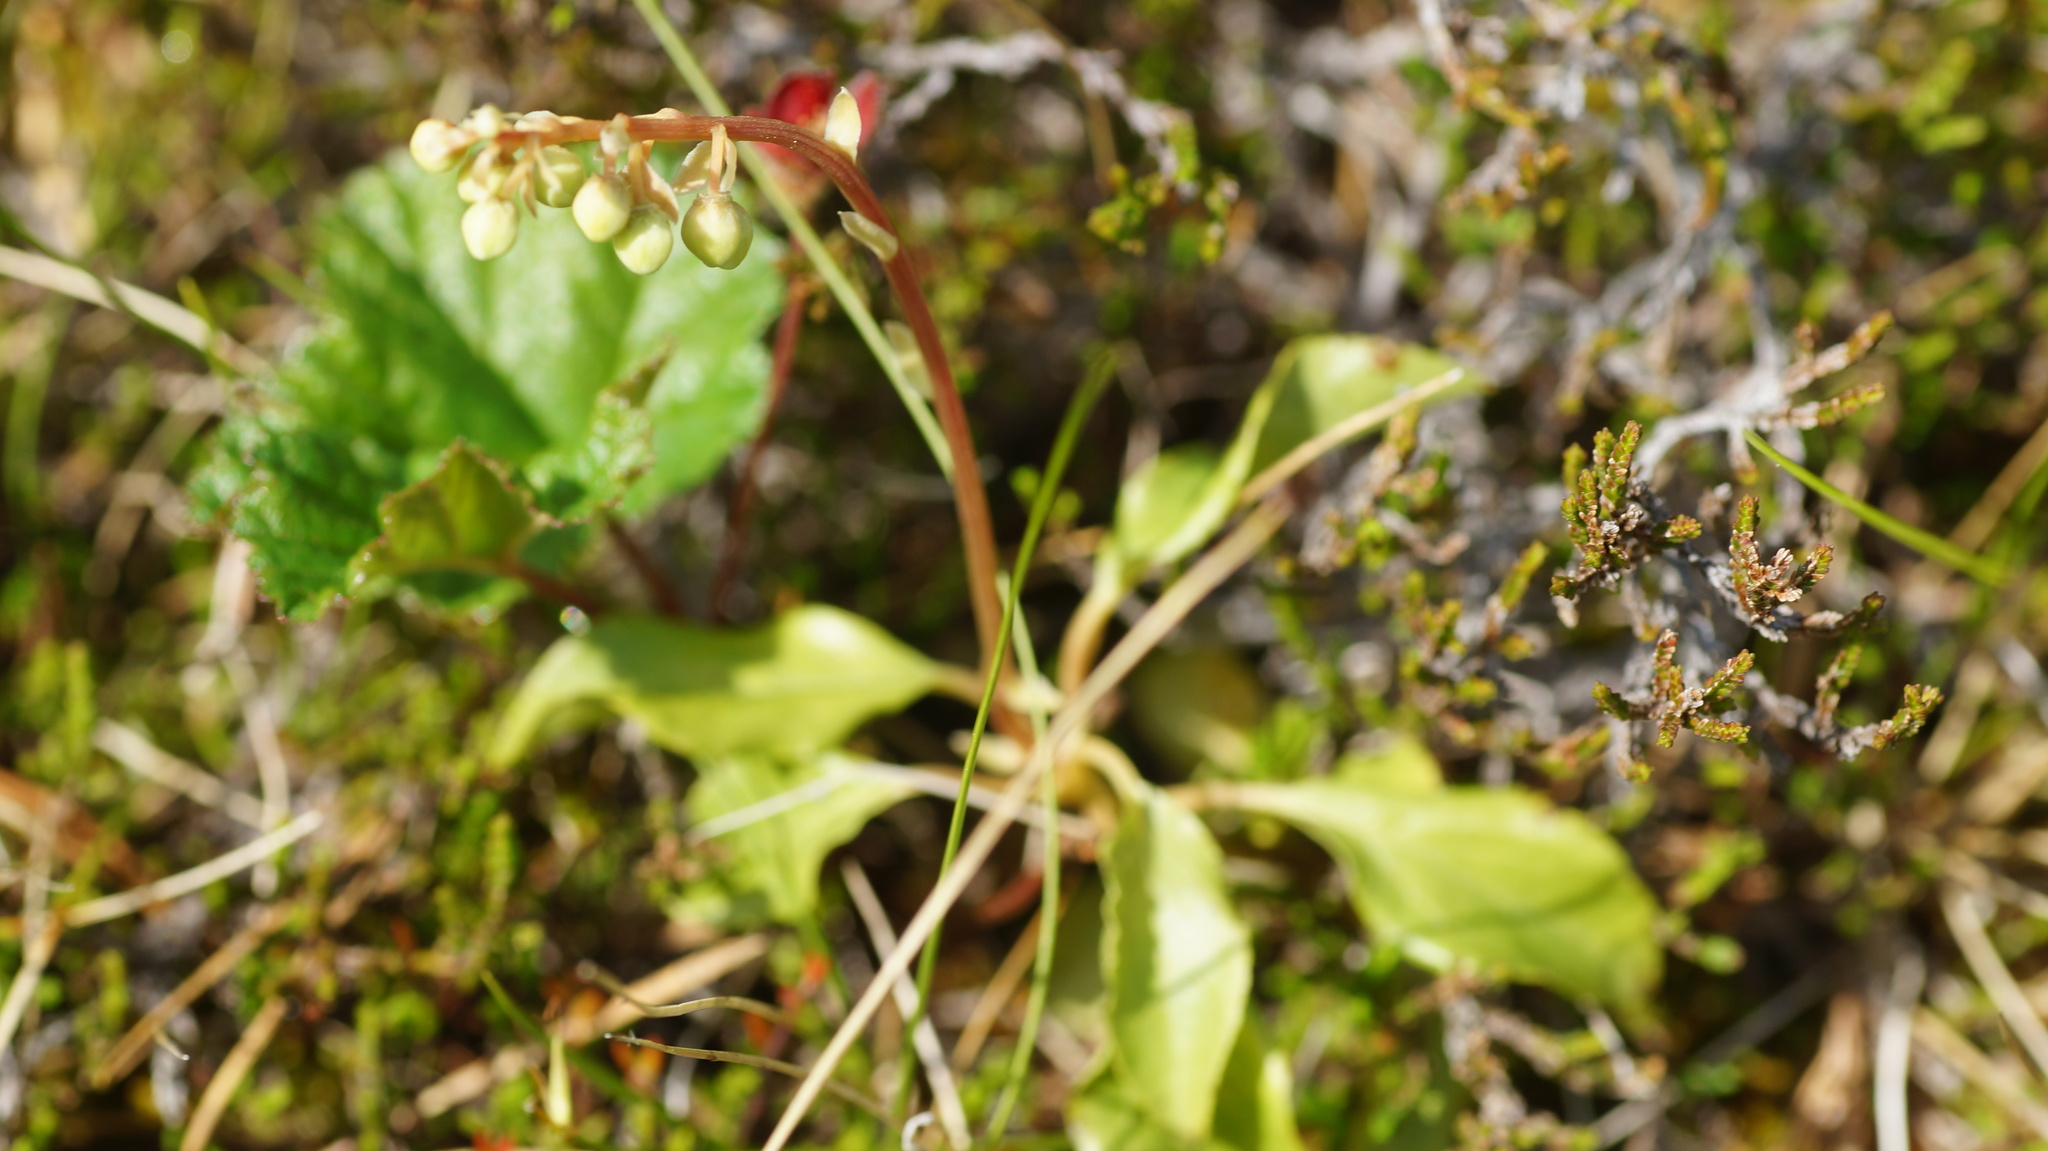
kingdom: Plantae
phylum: Tracheophyta
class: Magnoliopsida
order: Ericales
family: Ericaceae
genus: Orthilia
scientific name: Orthilia secunda
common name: One-sided orthilia
